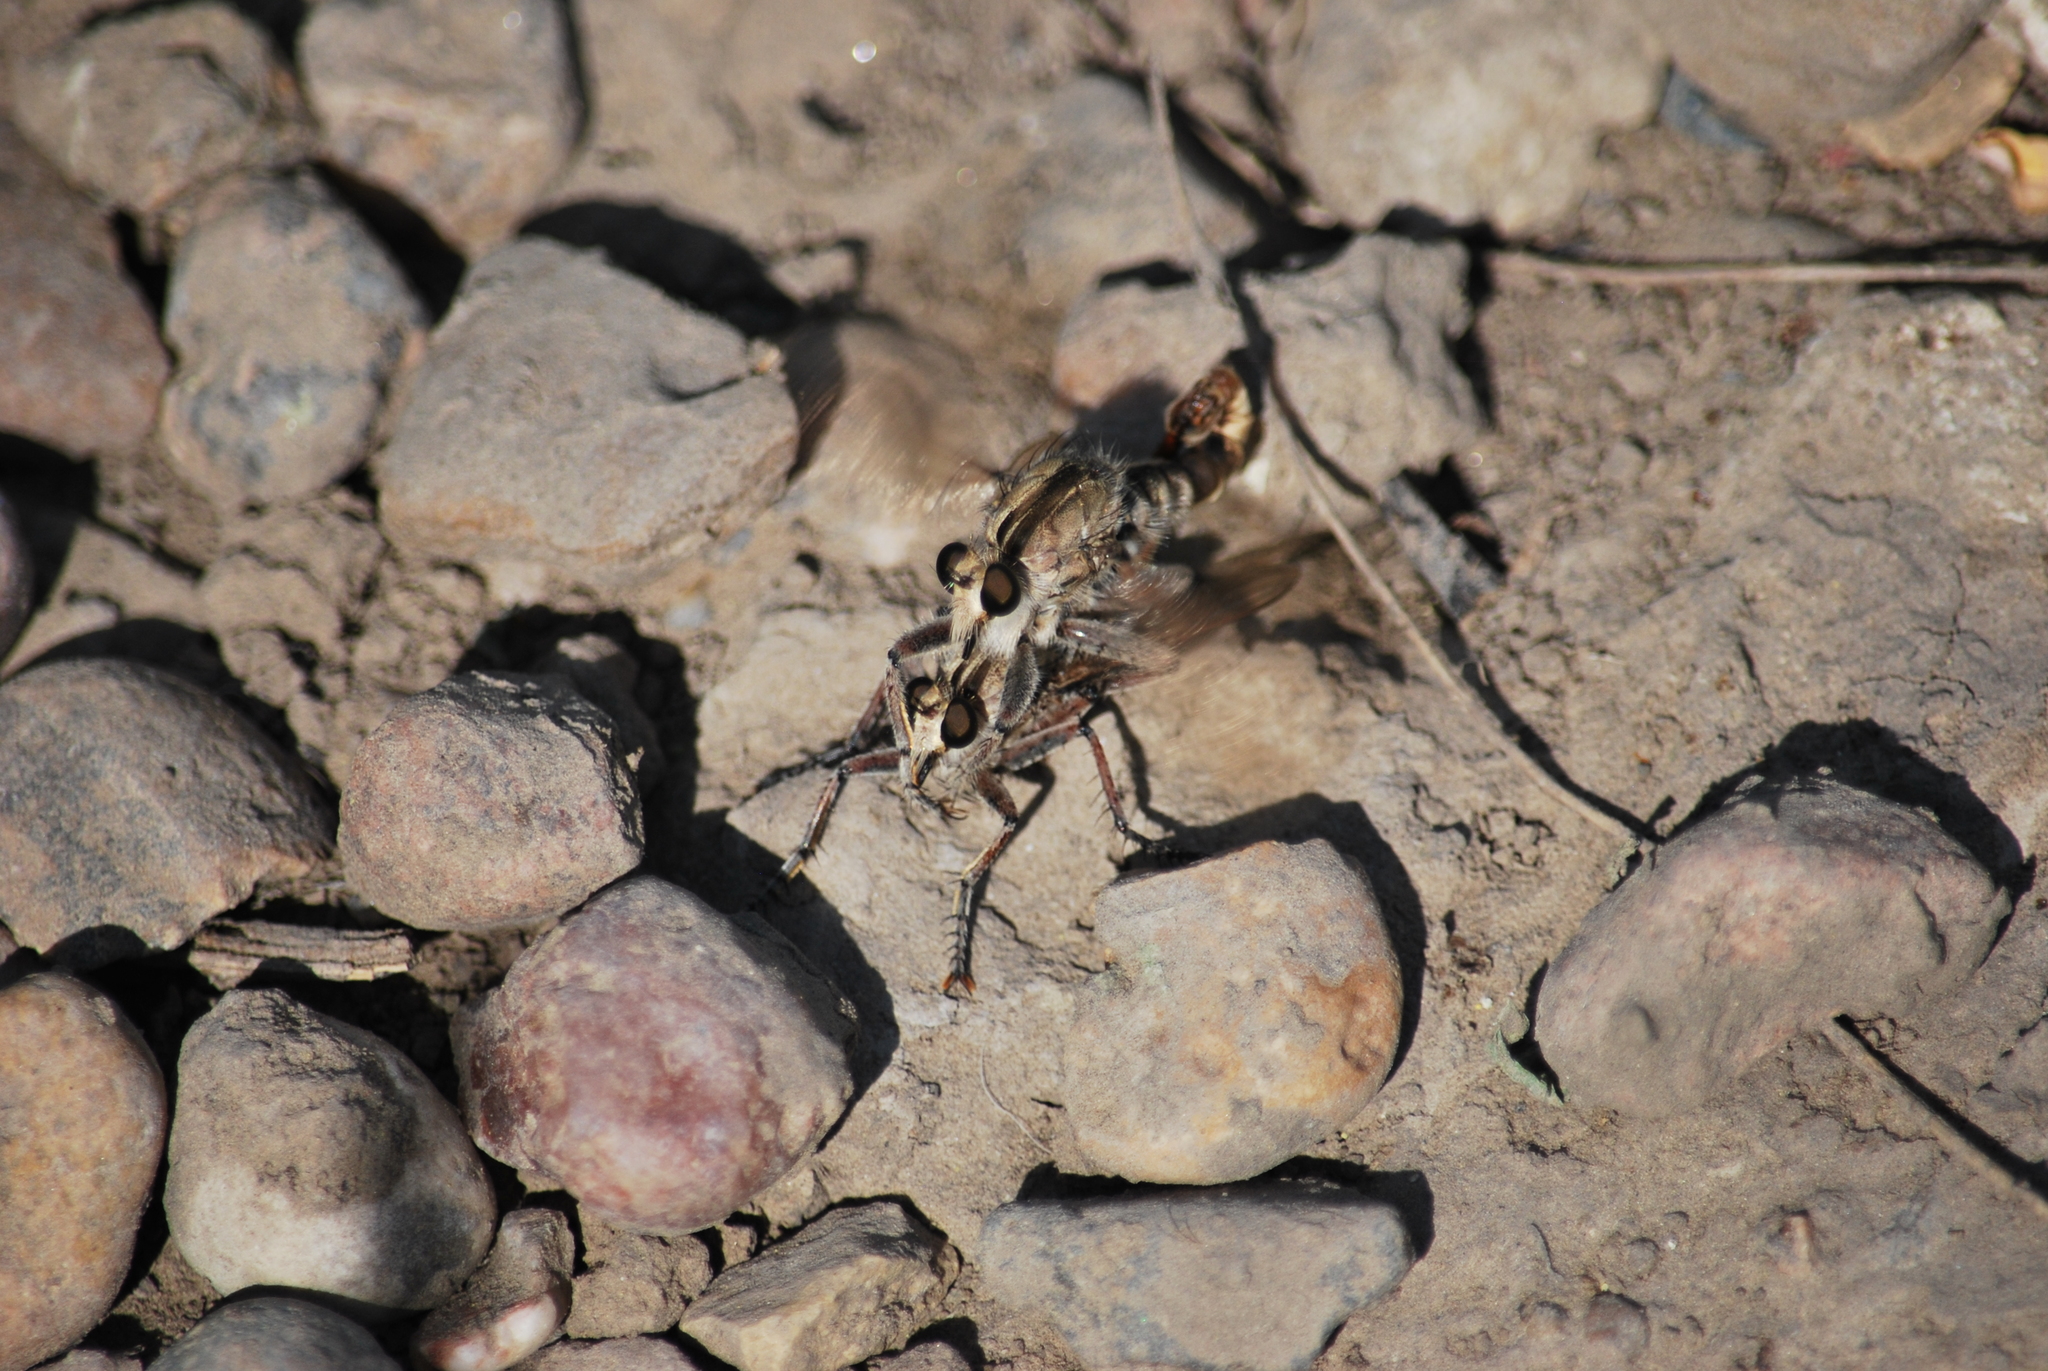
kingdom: Animalia
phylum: Arthropoda
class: Insecta
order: Diptera
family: Asilidae
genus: Triorla
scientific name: Triorla interrupta
